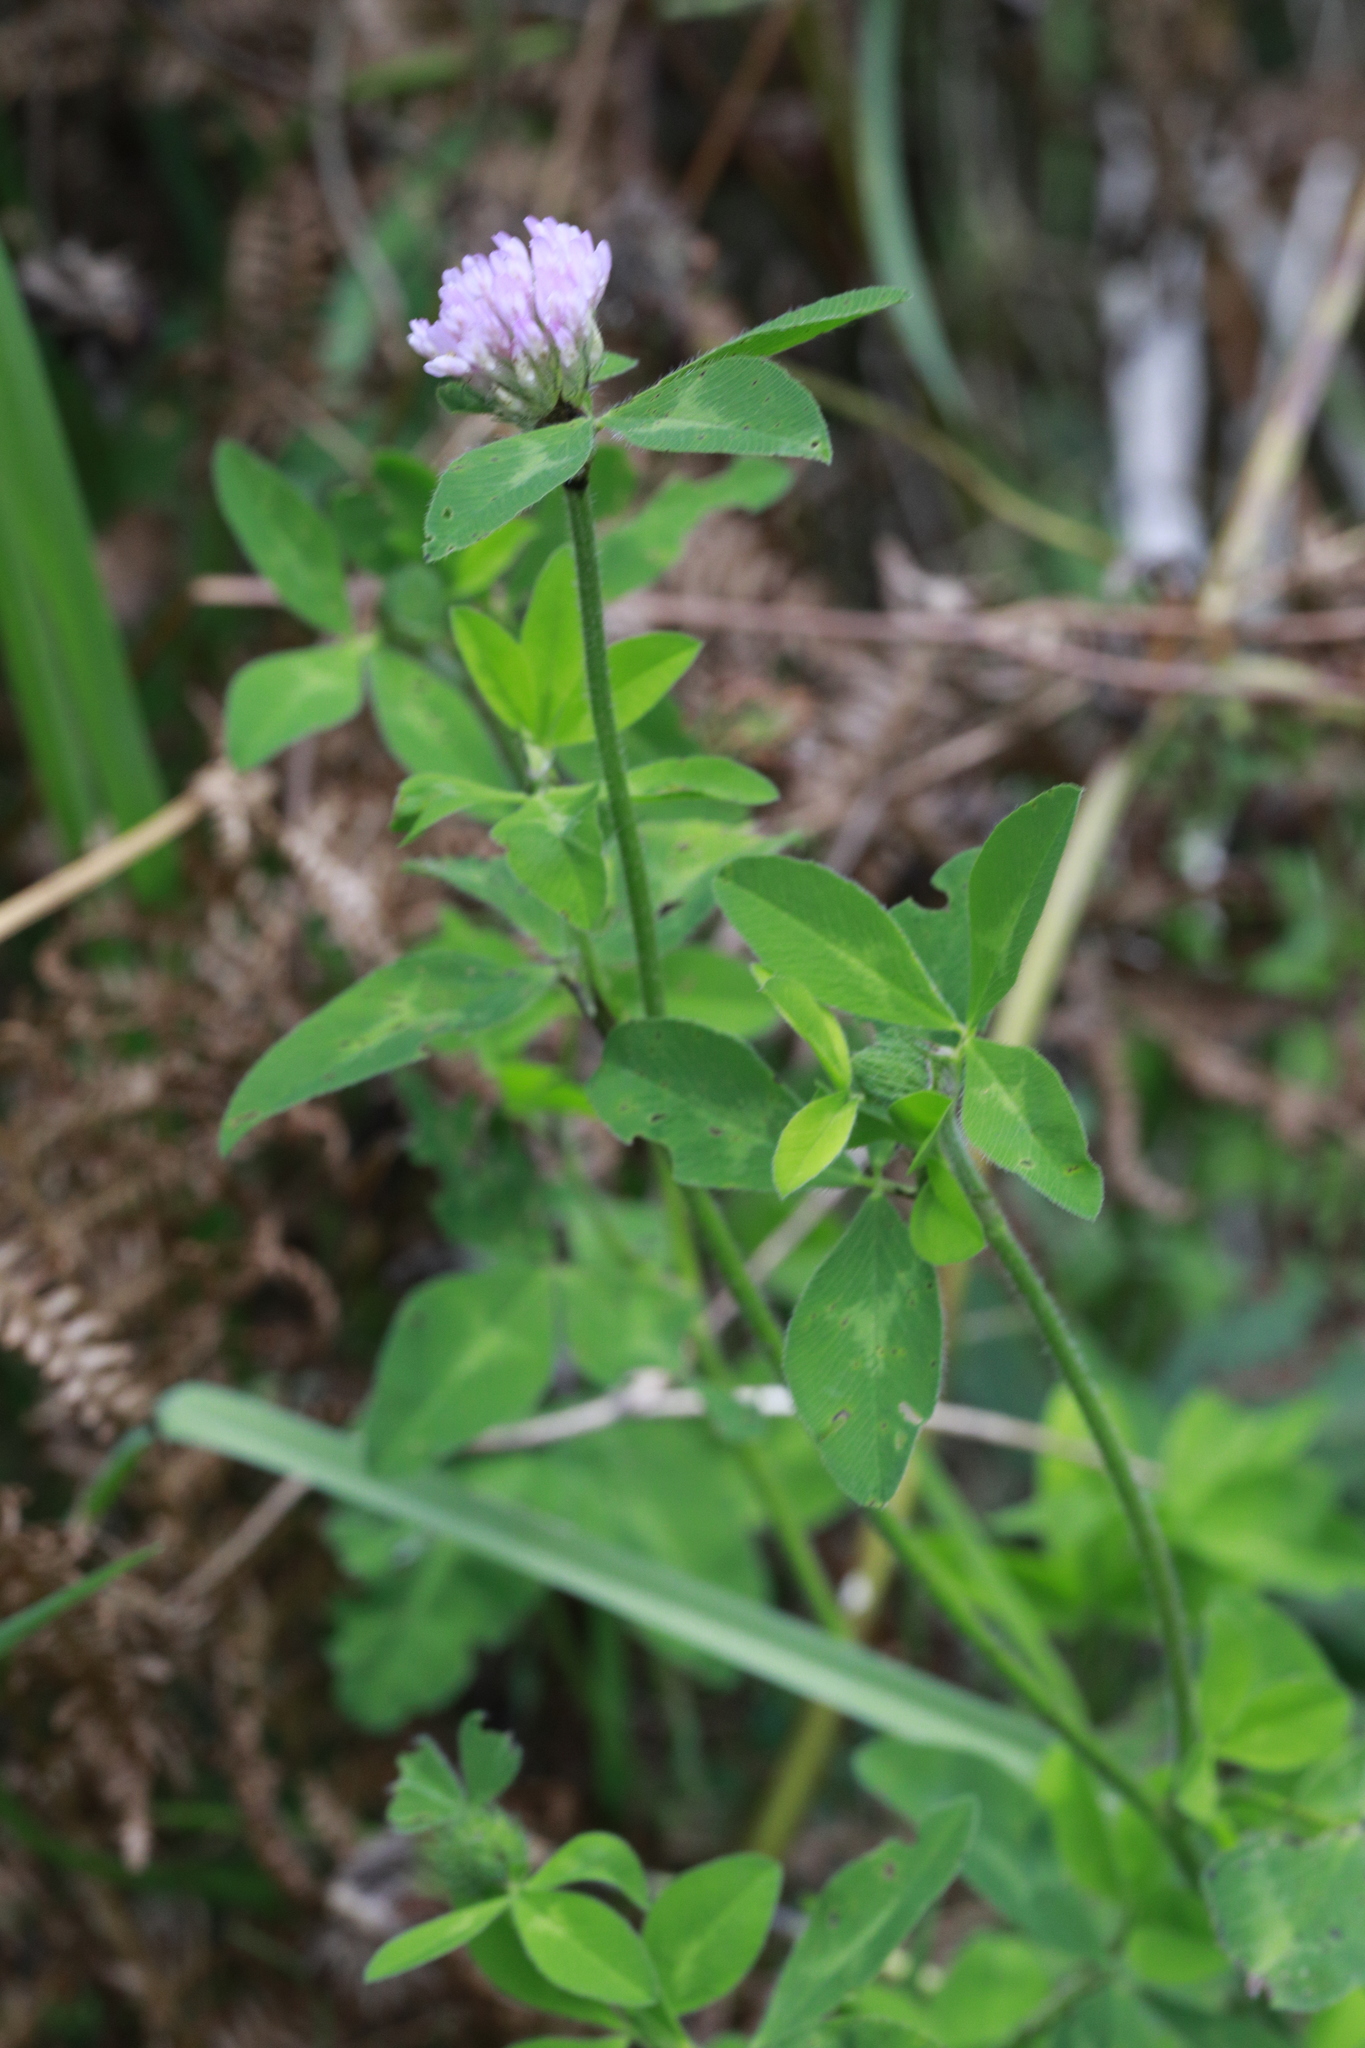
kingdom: Plantae
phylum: Tracheophyta
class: Magnoliopsida
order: Fabales
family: Fabaceae
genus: Trifolium
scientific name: Trifolium pratense
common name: Red clover
